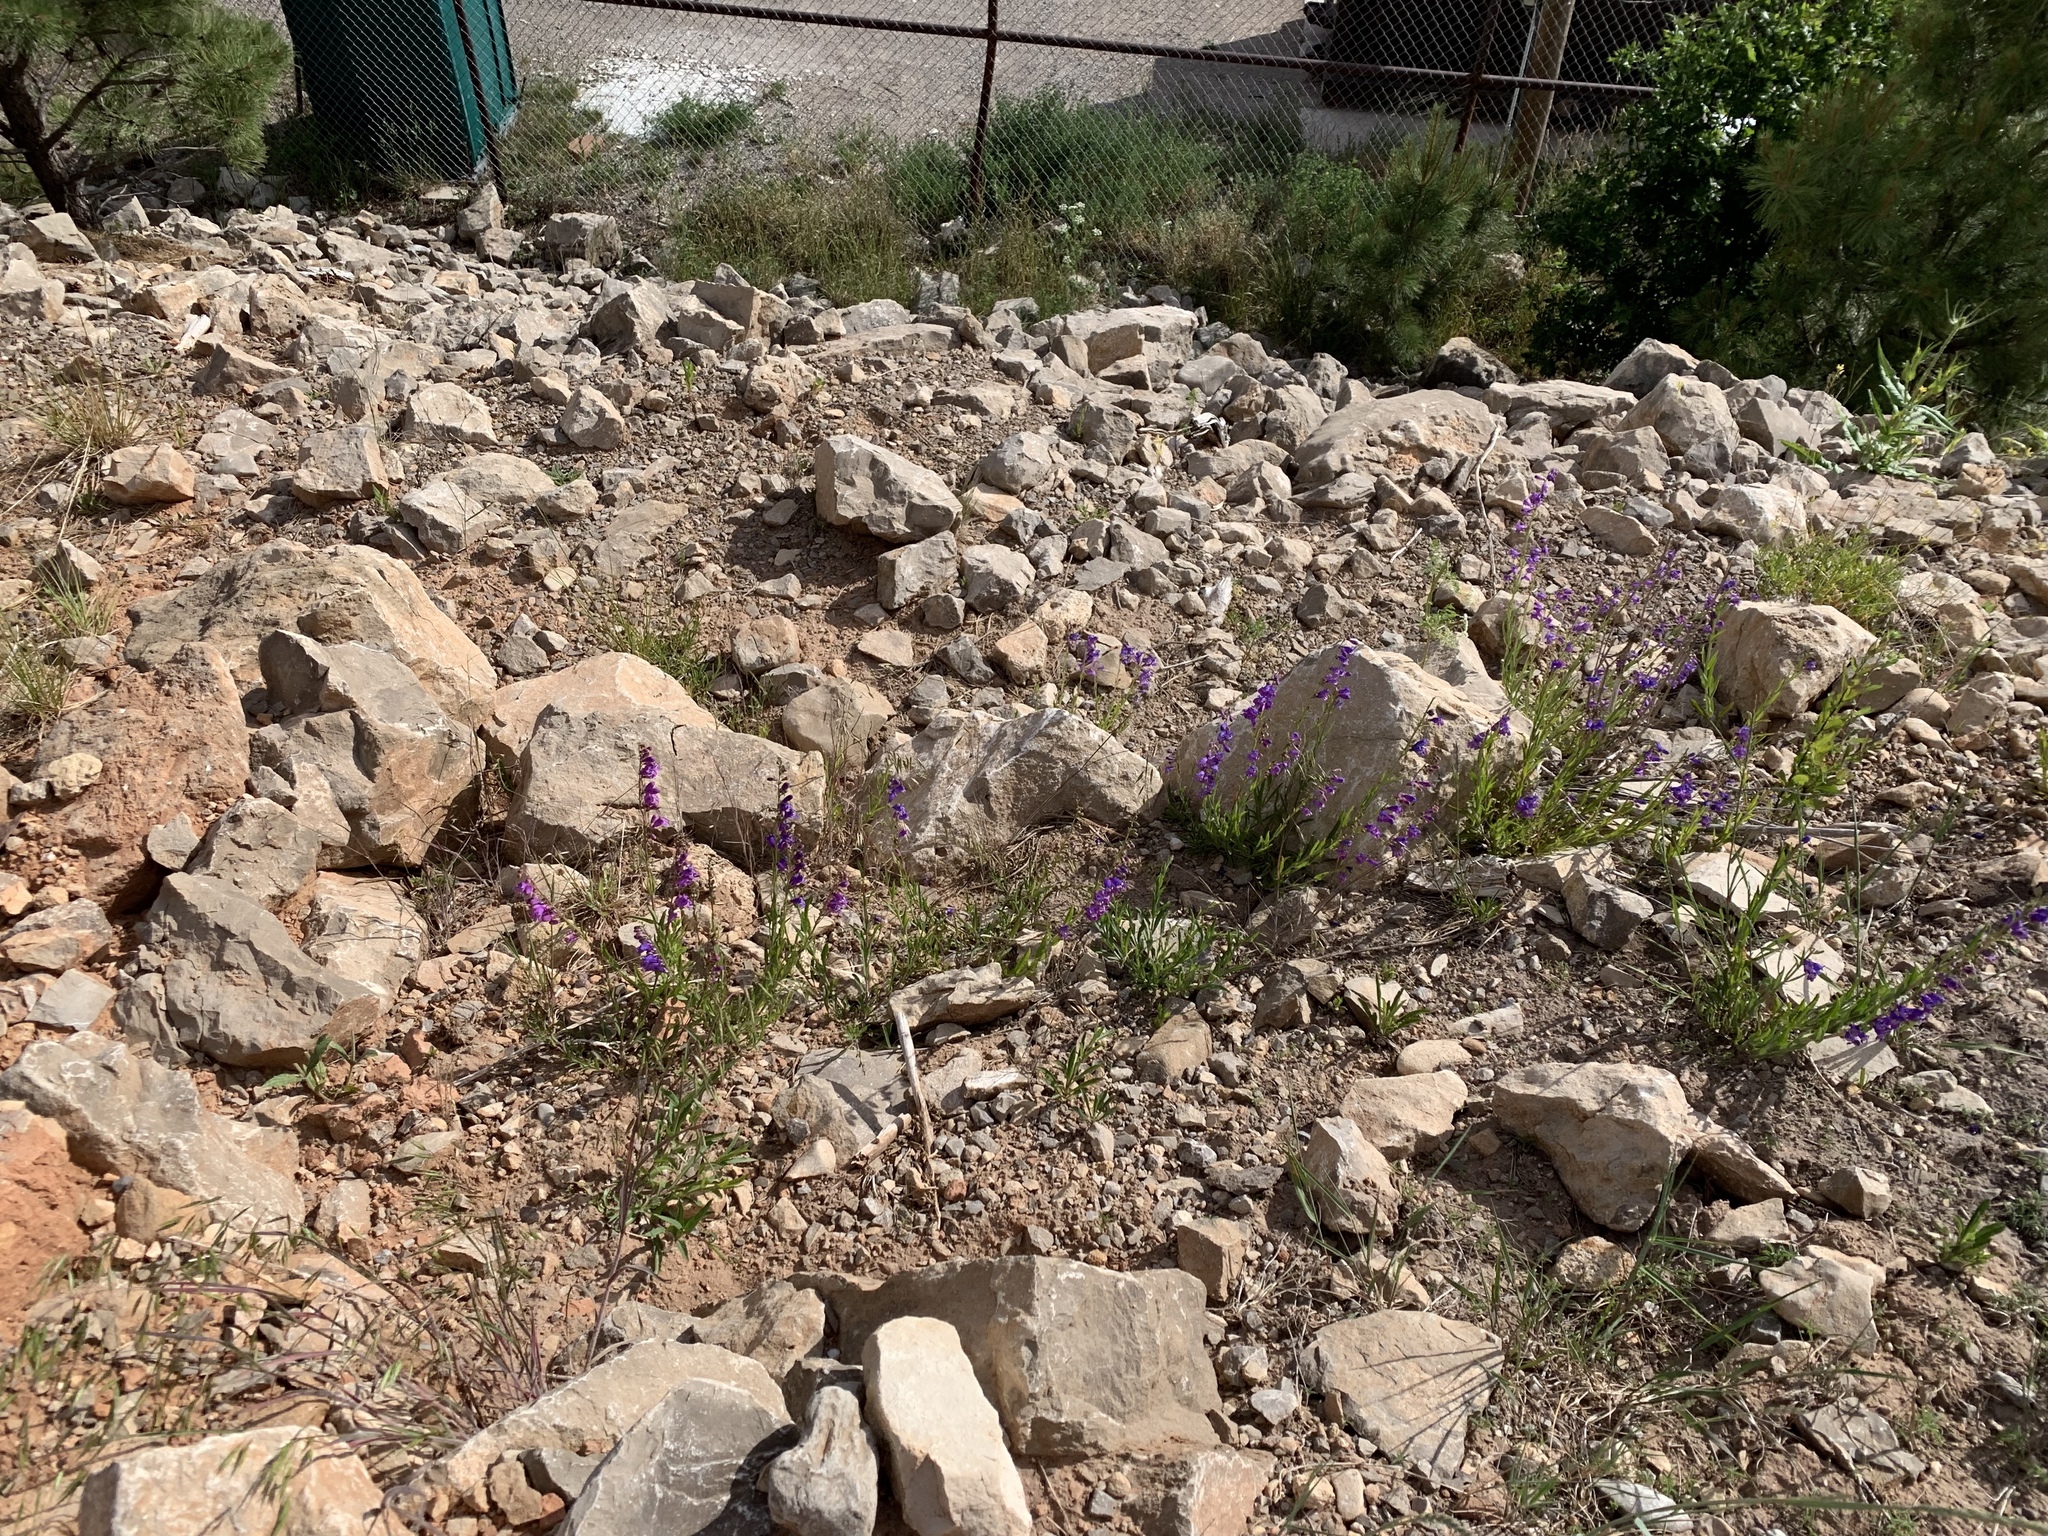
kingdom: Plantae
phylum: Tracheophyta
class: Magnoliopsida
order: Lamiales
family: Plantaginaceae
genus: Penstemon
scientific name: Penstemon neomexicanus
